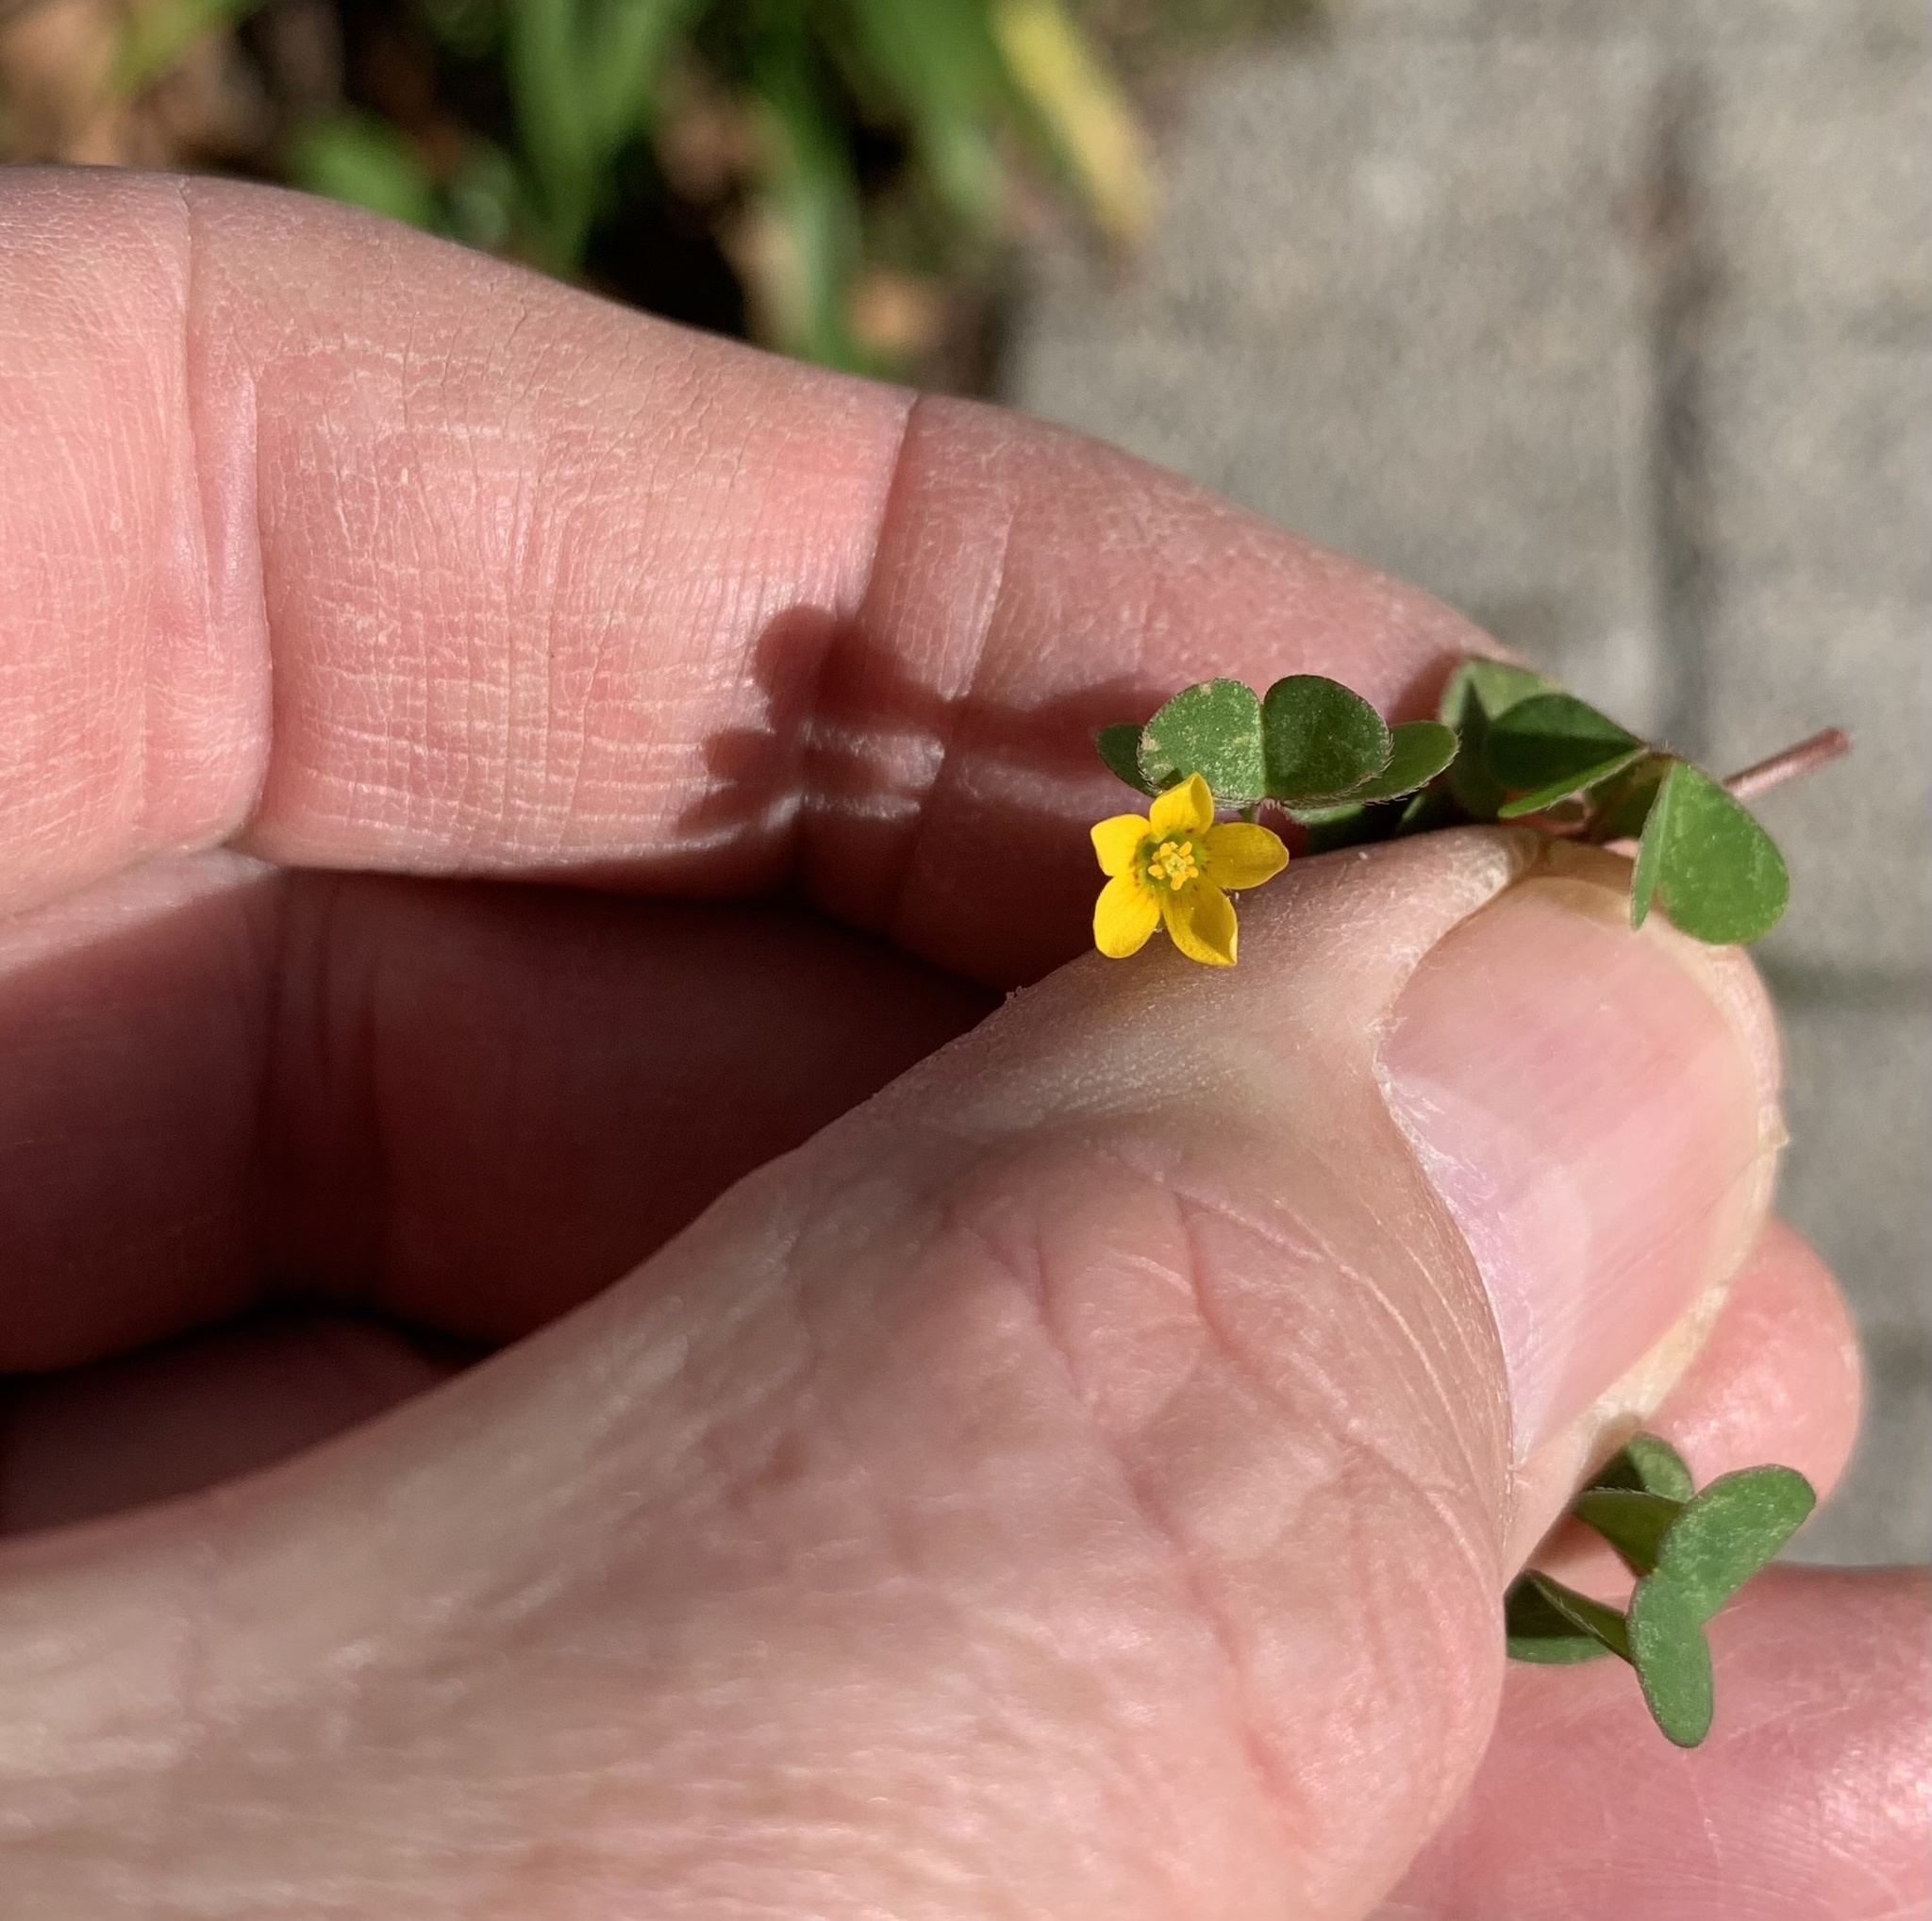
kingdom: Plantae
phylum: Tracheophyta
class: Magnoliopsida
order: Oxalidales
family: Oxalidaceae
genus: Oxalis
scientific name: Oxalis corniculata
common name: Procumbent yellow-sorrel
